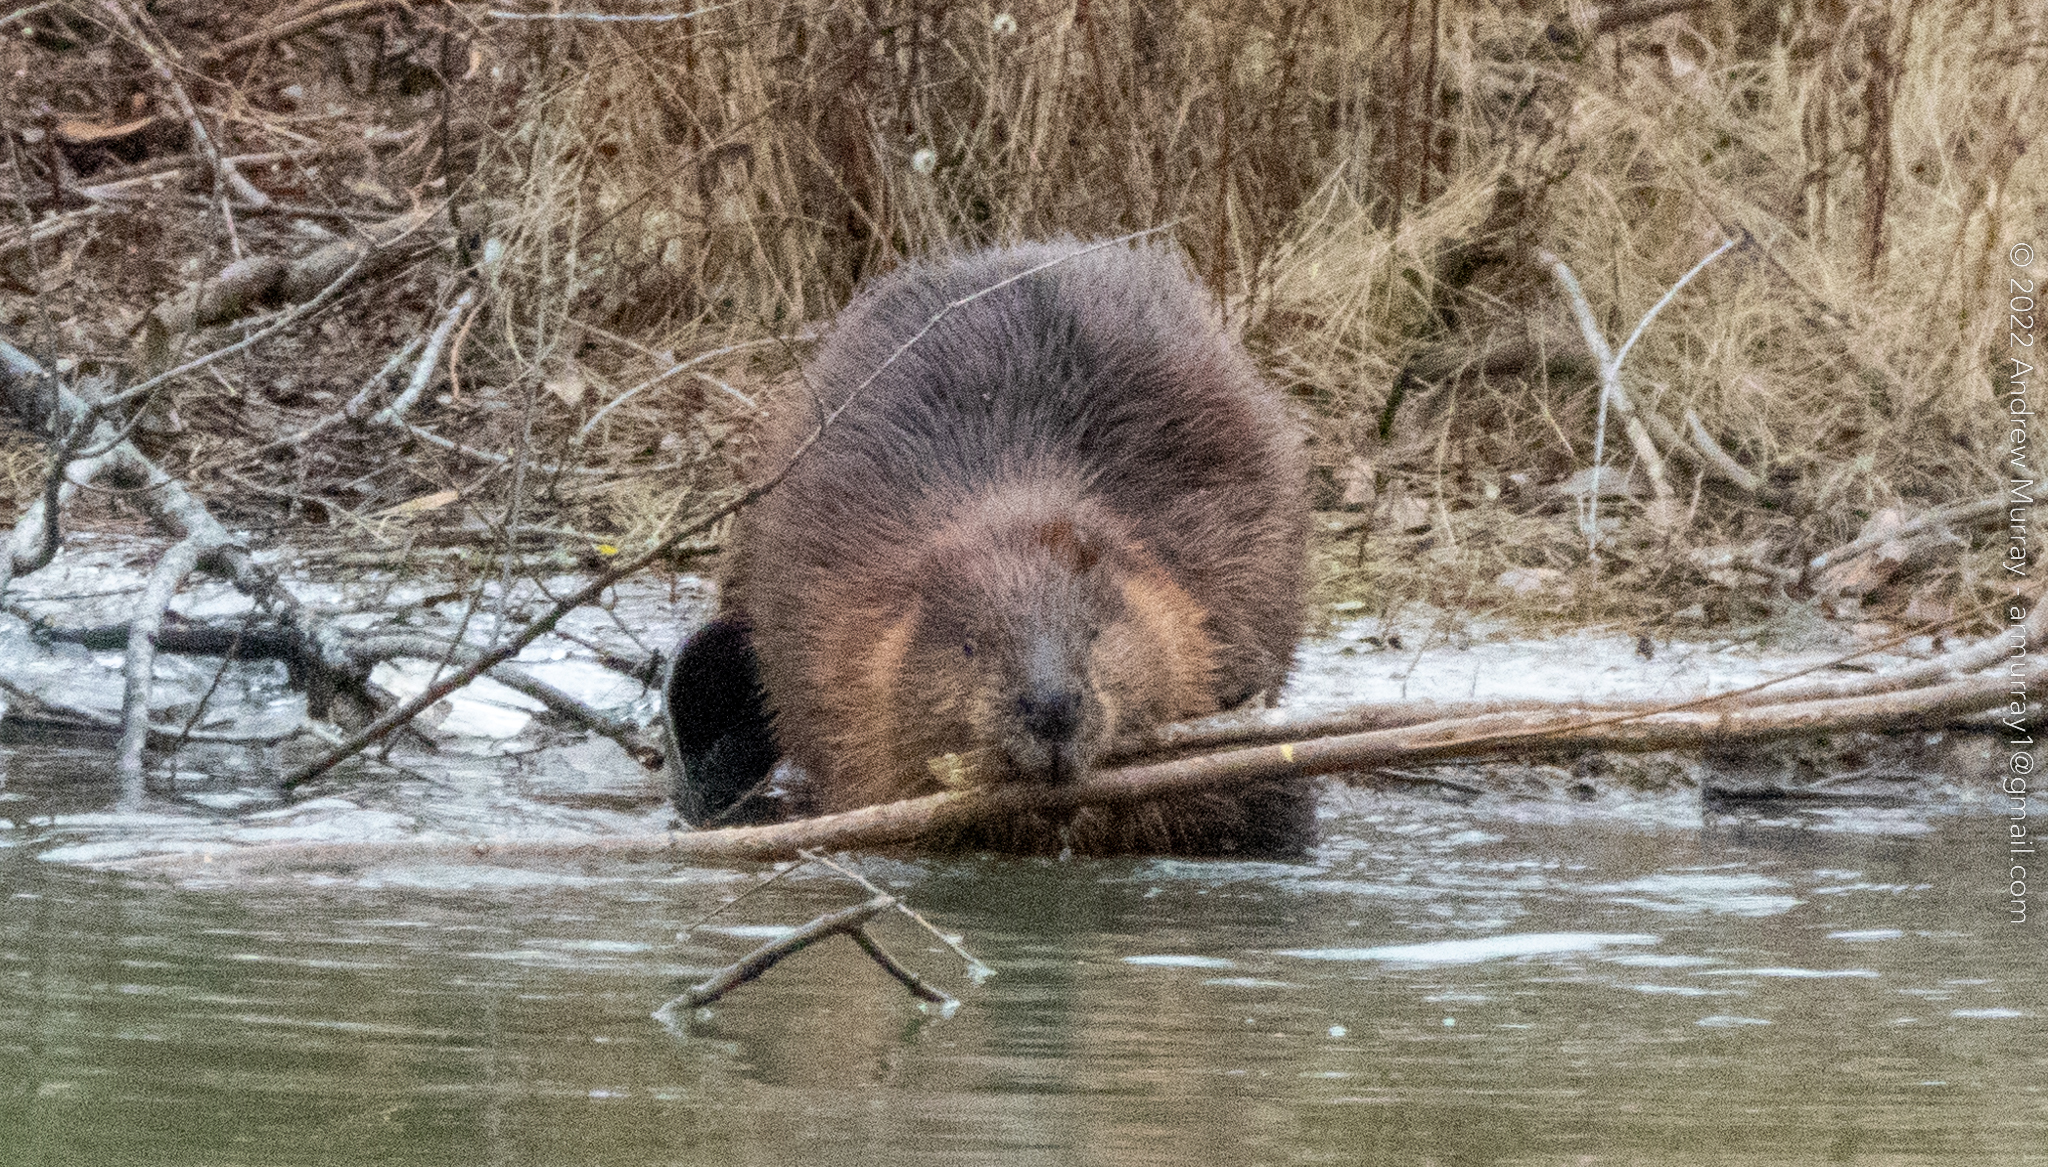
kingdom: Animalia
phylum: Chordata
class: Mammalia
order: Rodentia
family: Castoridae
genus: Castor
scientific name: Castor canadensis
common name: American beaver
